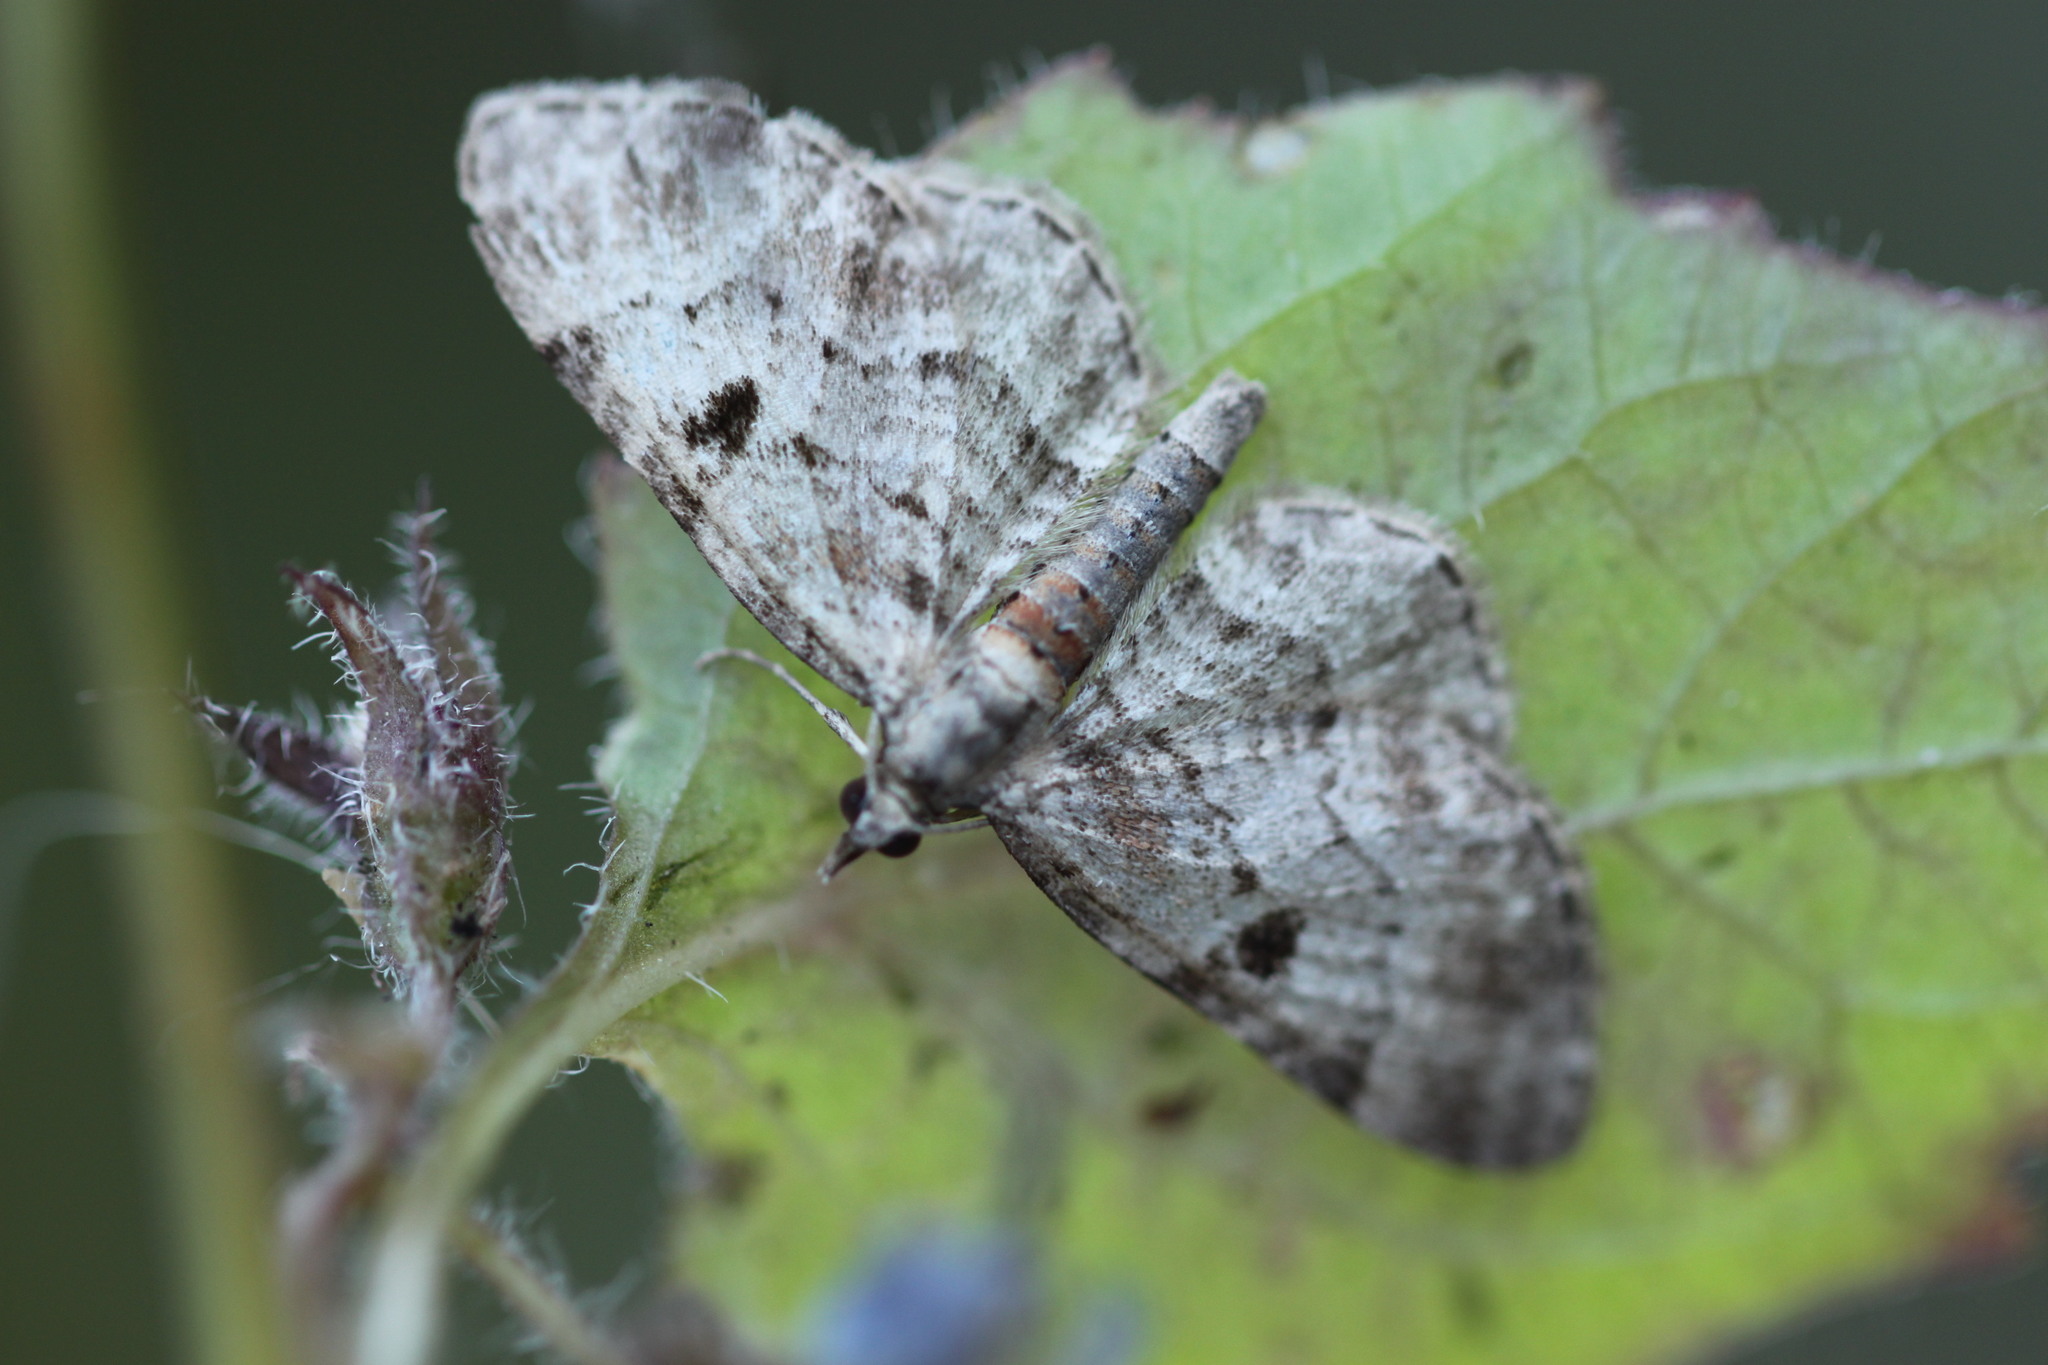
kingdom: Animalia
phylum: Arthropoda
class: Insecta
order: Lepidoptera
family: Geometridae
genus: Eupithecia
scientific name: Eupithecia abietaria
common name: Cloaked pug
